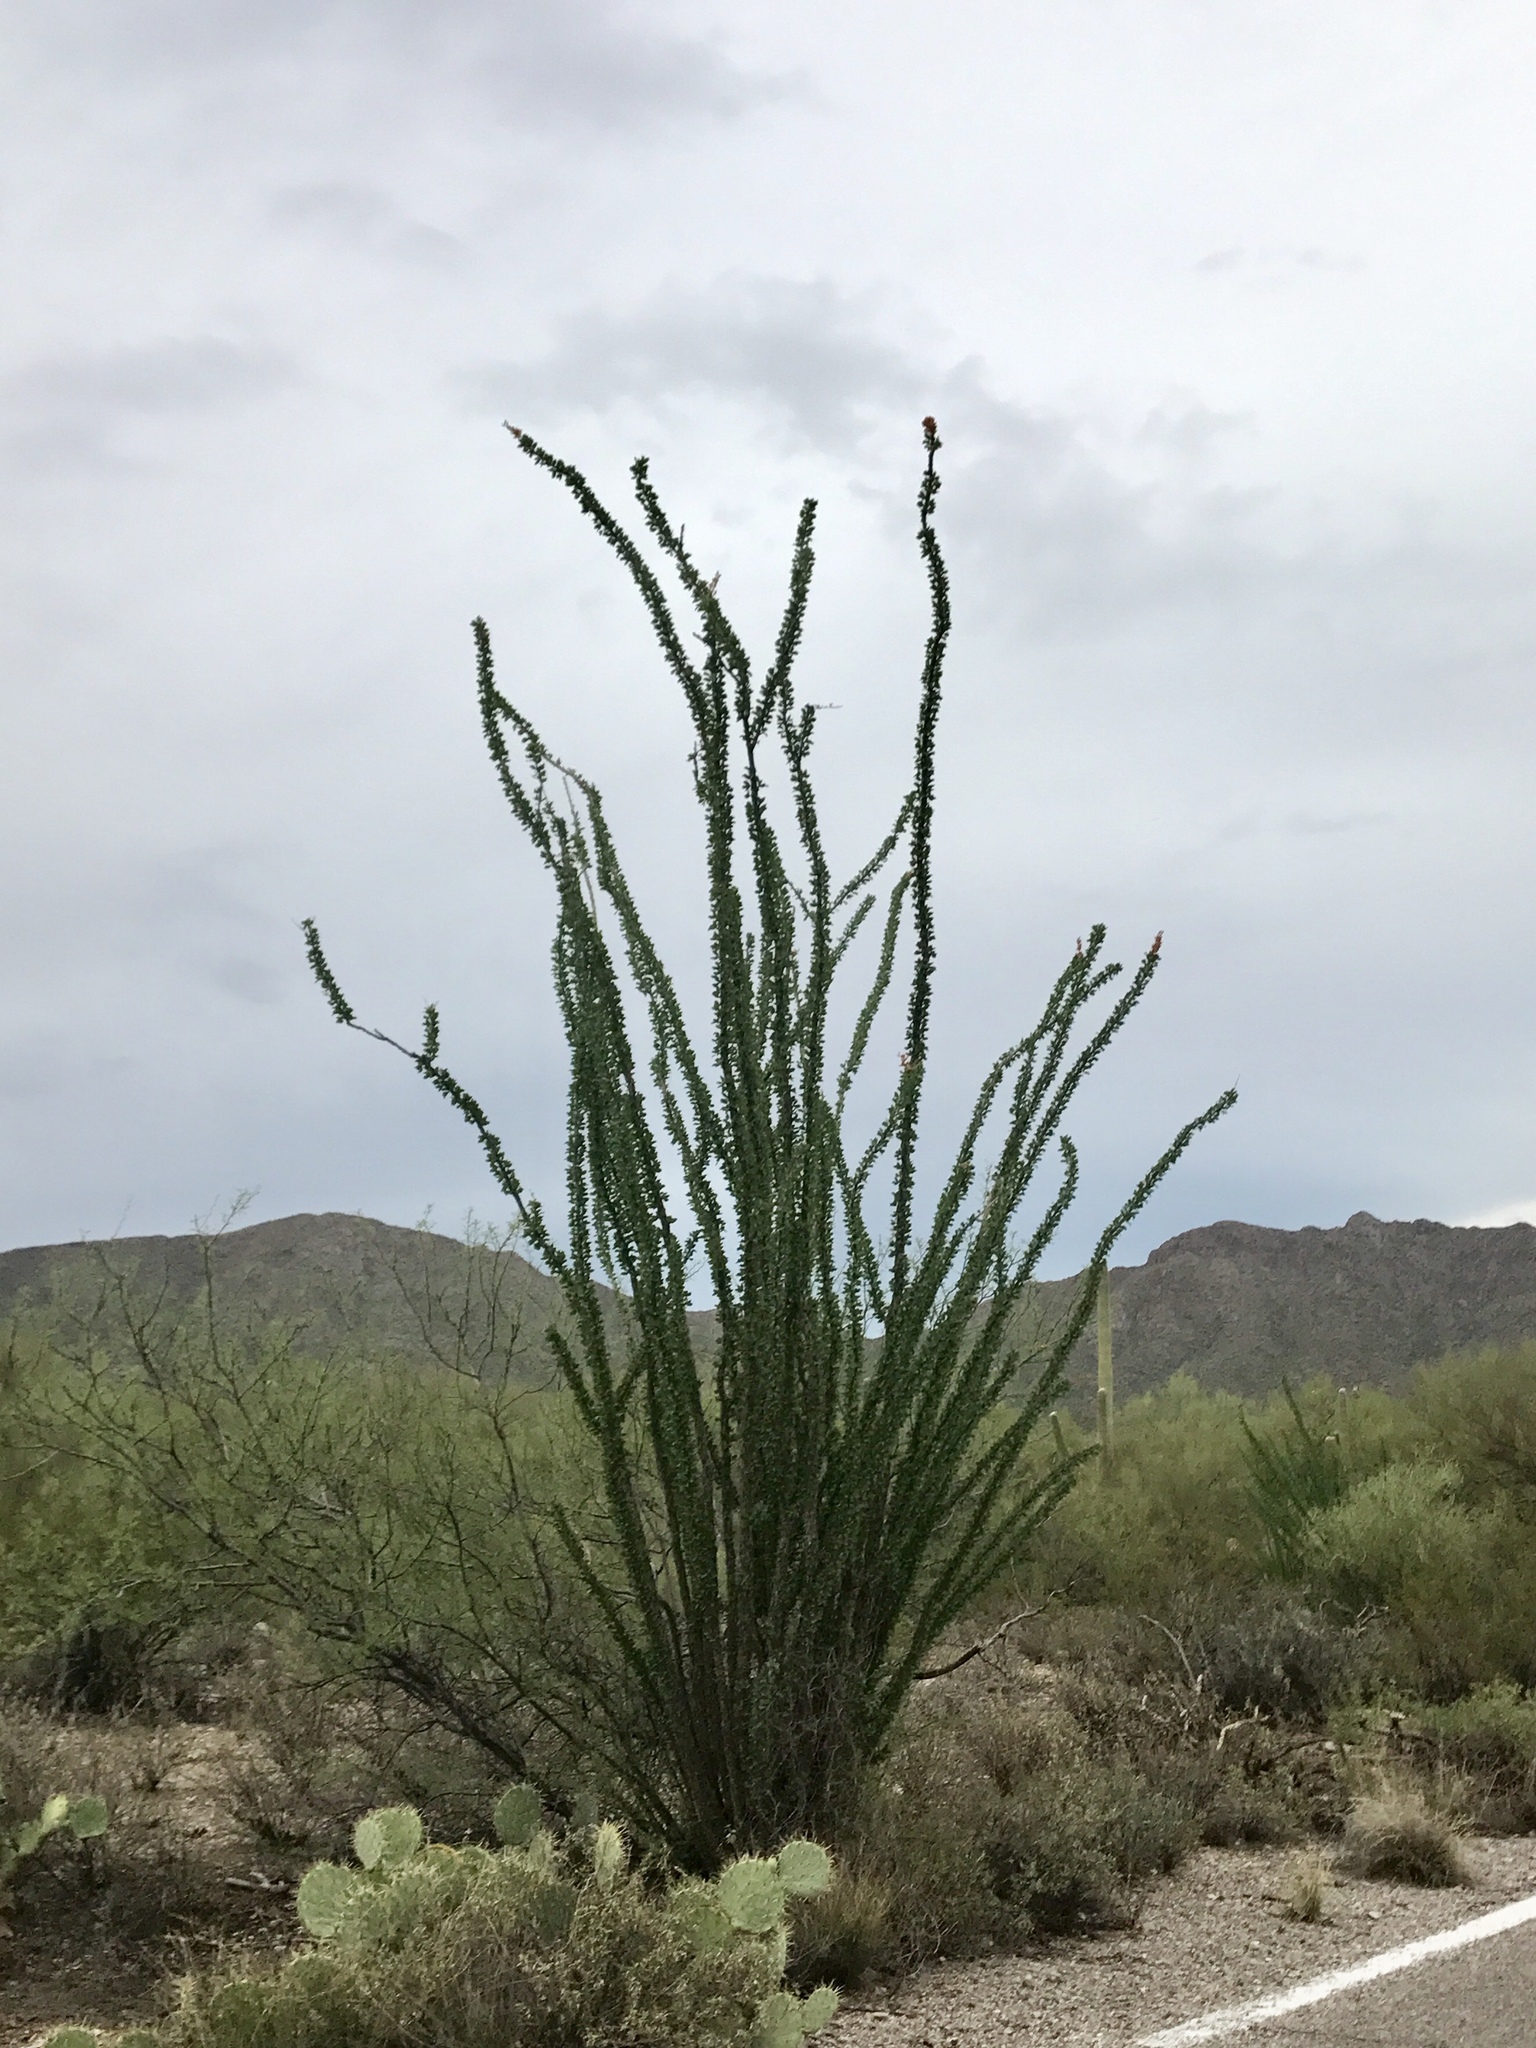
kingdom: Plantae
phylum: Tracheophyta
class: Magnoliopsida
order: Ericales
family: Fouquieriaceae
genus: Fouquieria
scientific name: Fouquieria splendens
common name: Vine-cactus
